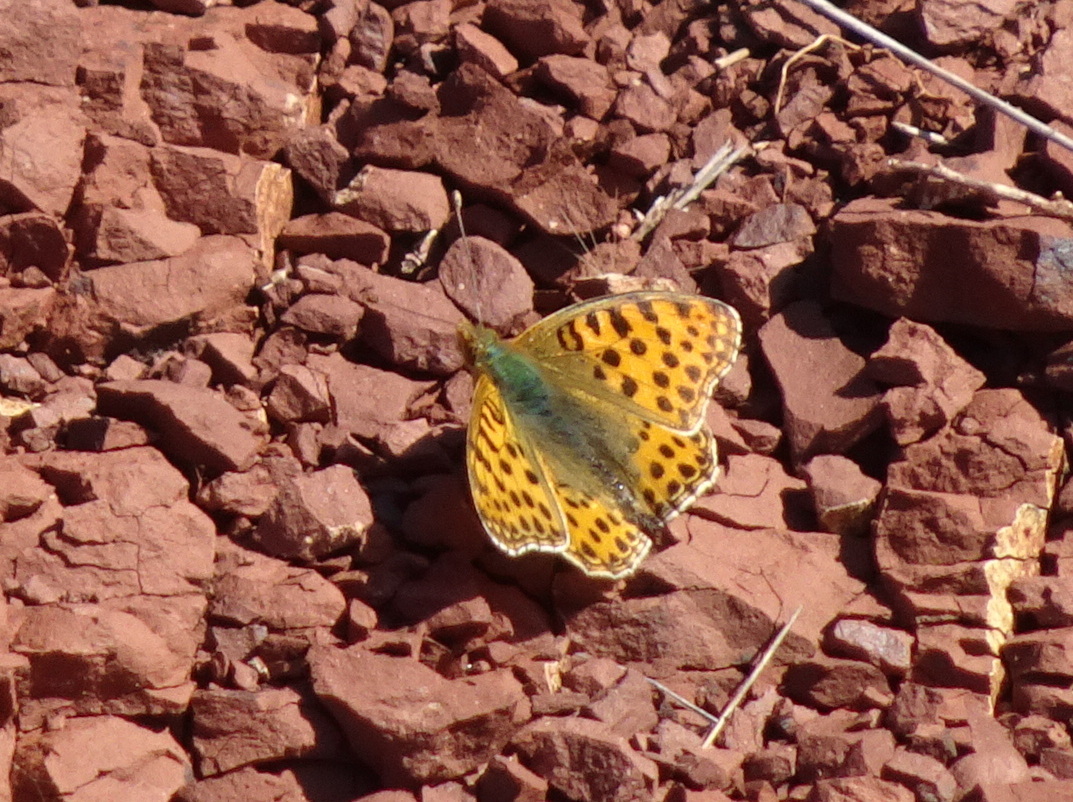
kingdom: Animalia
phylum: Arthropoda
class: Insecta
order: Lepidoptera
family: Nymphalidae
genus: Issoria
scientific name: Issoria lathonia
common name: Queen of spain fritillary
